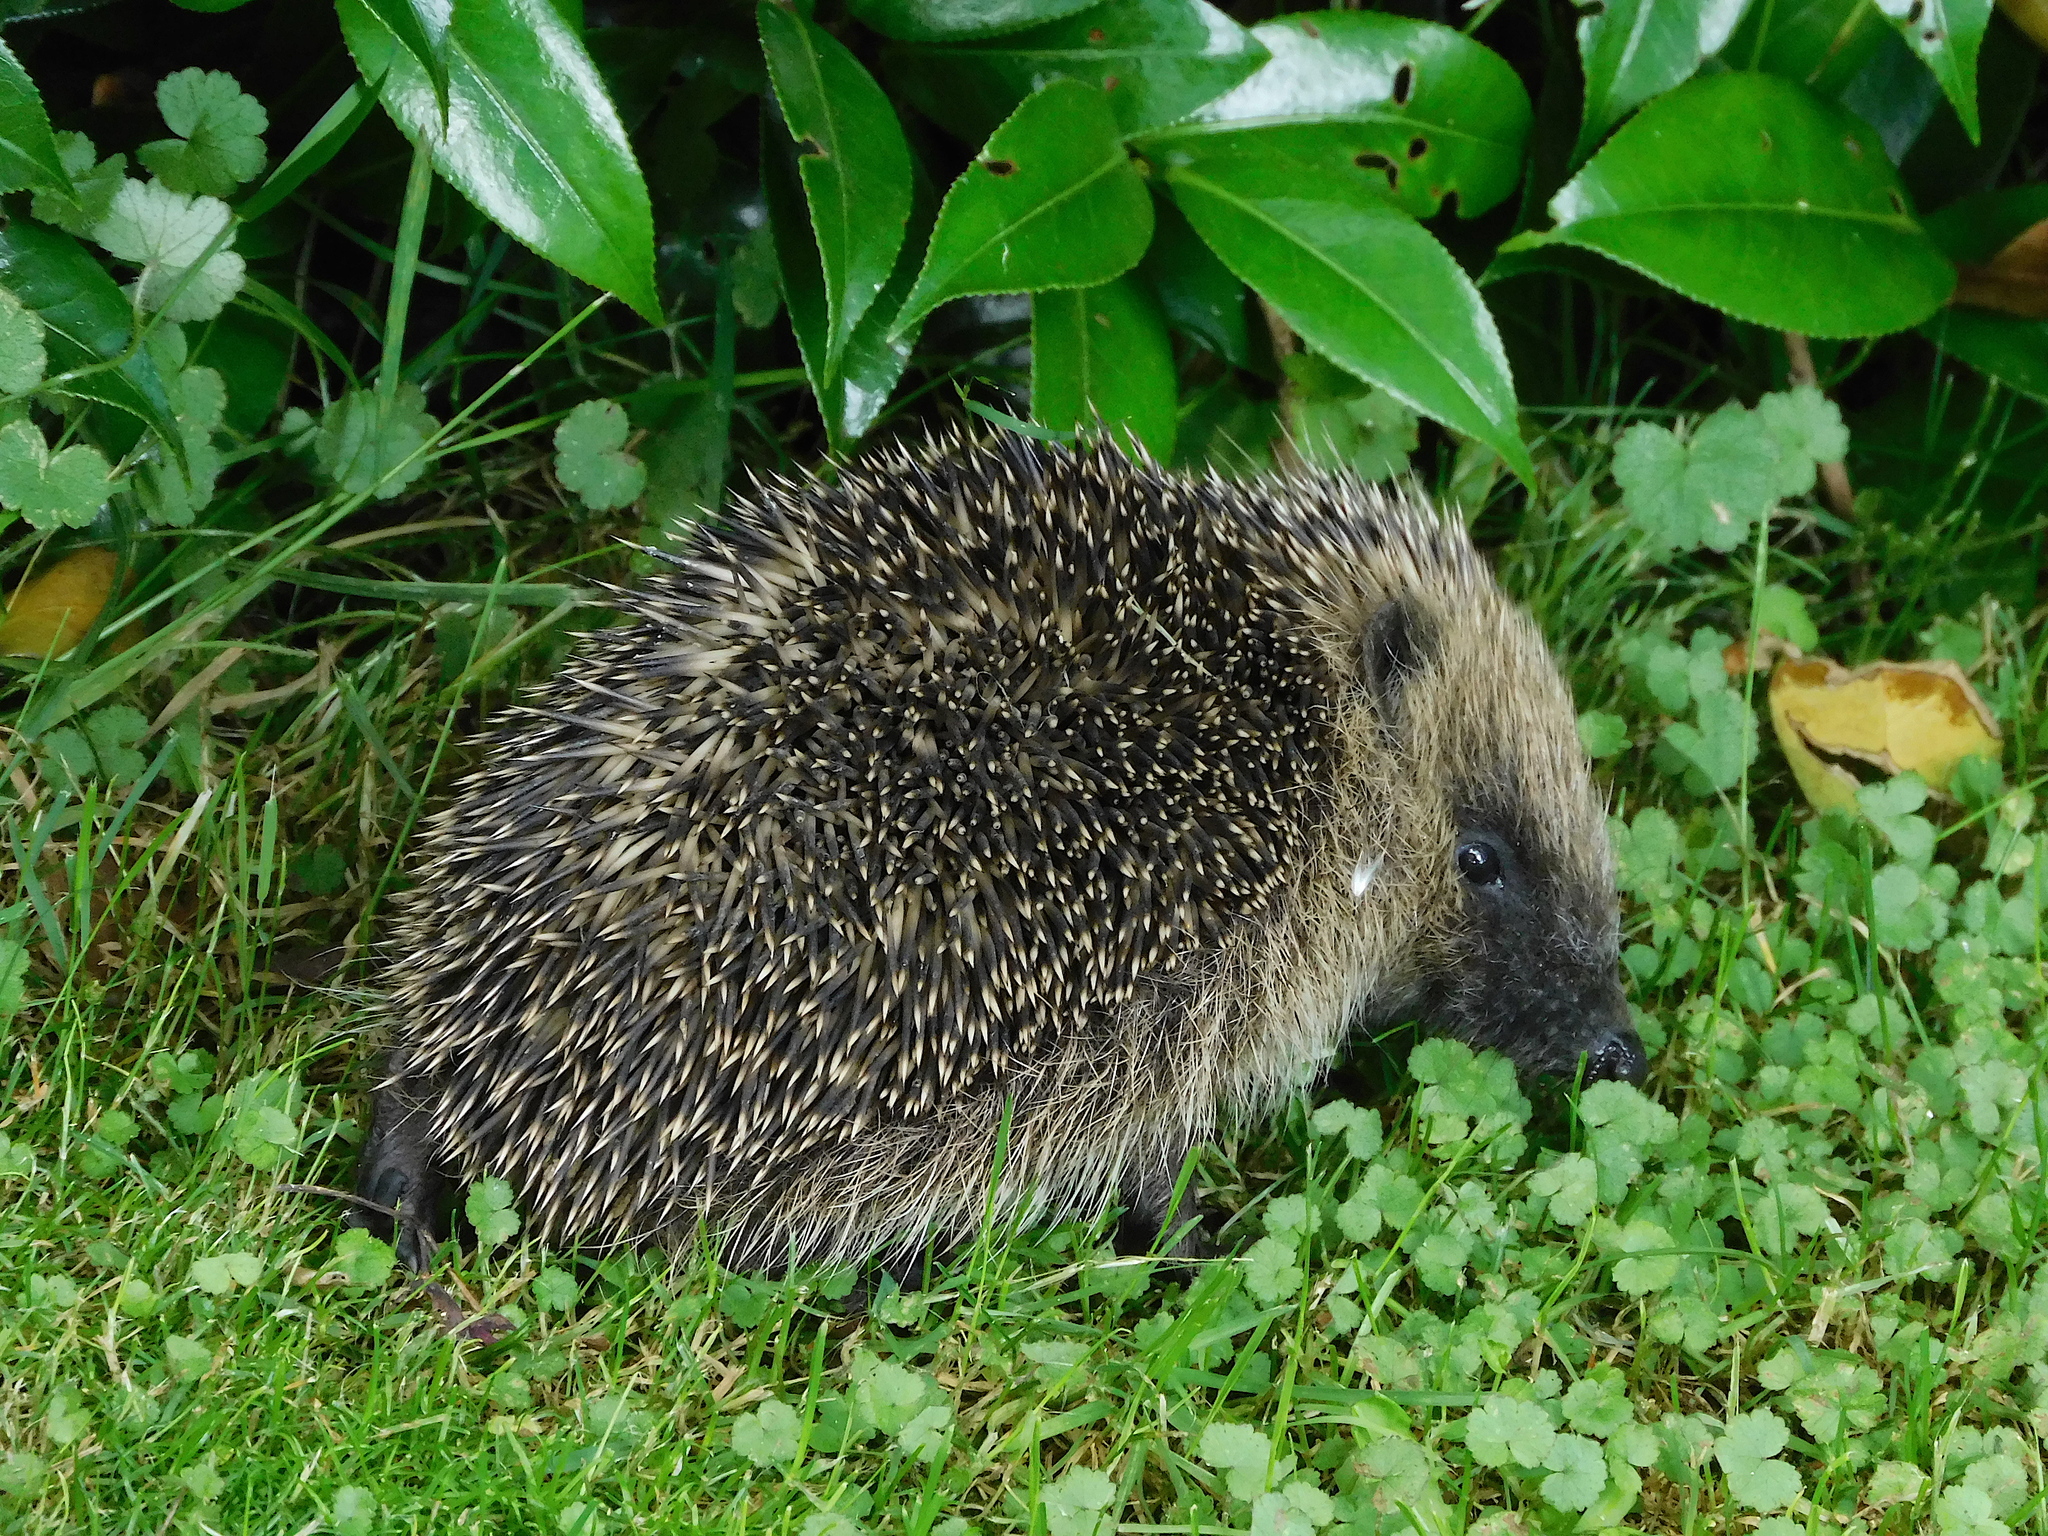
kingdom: Animalia
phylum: Chordata
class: Mammalia
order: Erinaceomorpha
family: Erinaceidae
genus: Erinaceus
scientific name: Erinaceus europaeus
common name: West european hedgehog
